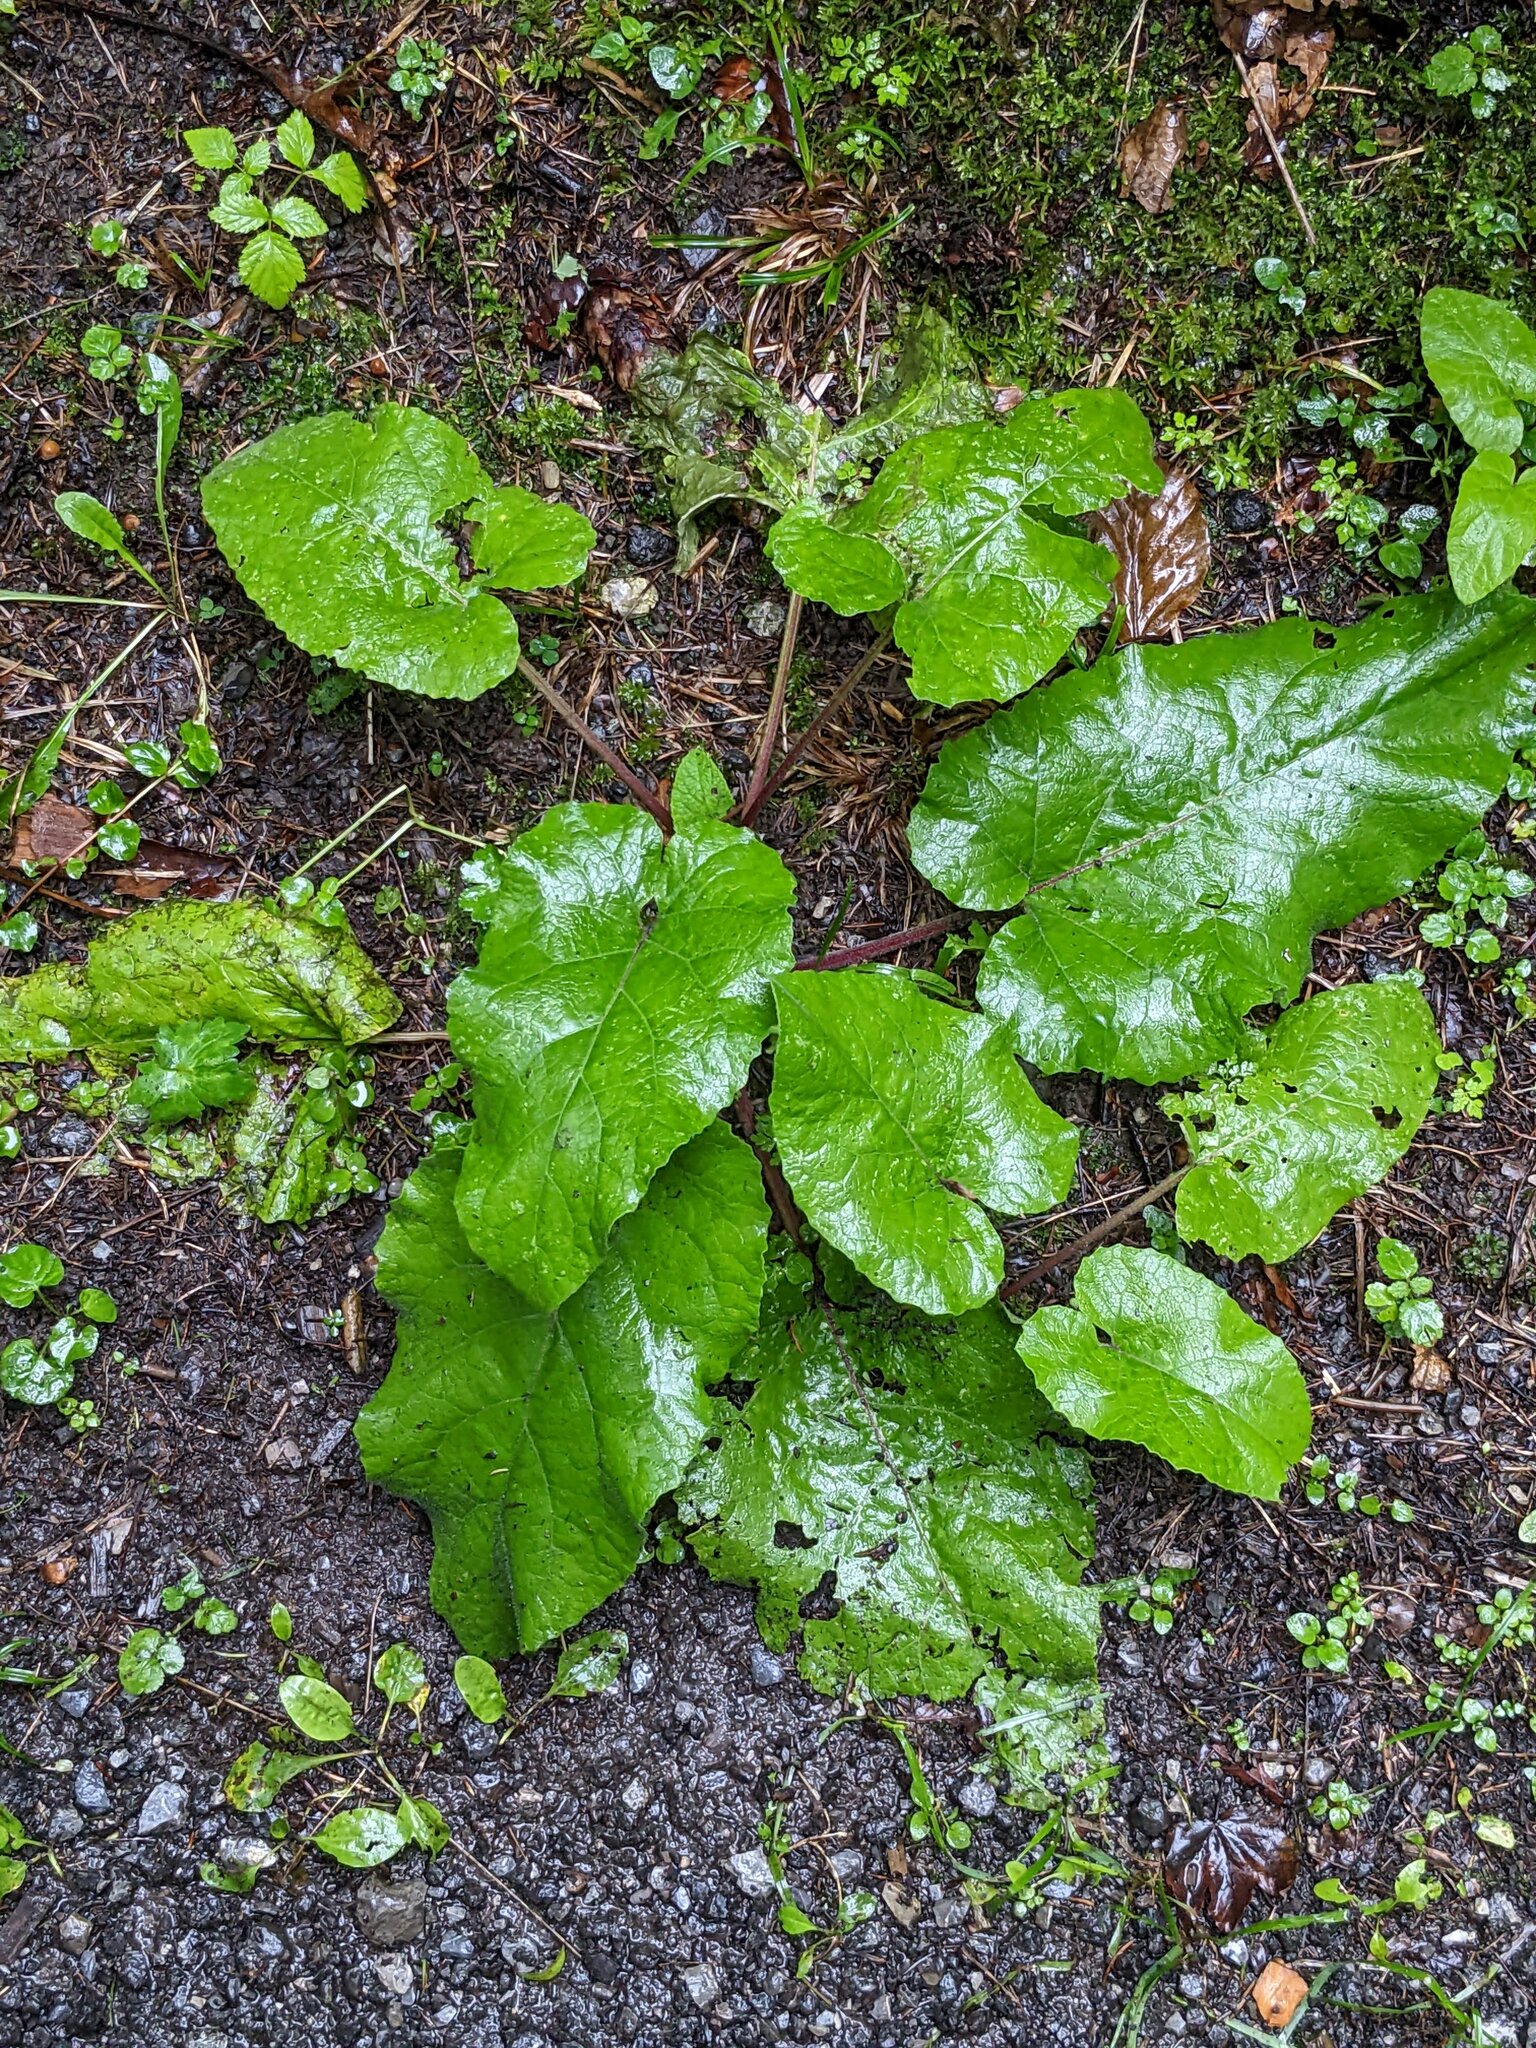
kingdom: Plantae
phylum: Tracheophyta
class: Magnoliopsida
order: Asterales
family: Asteraceae
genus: Arctium
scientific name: Arctium
